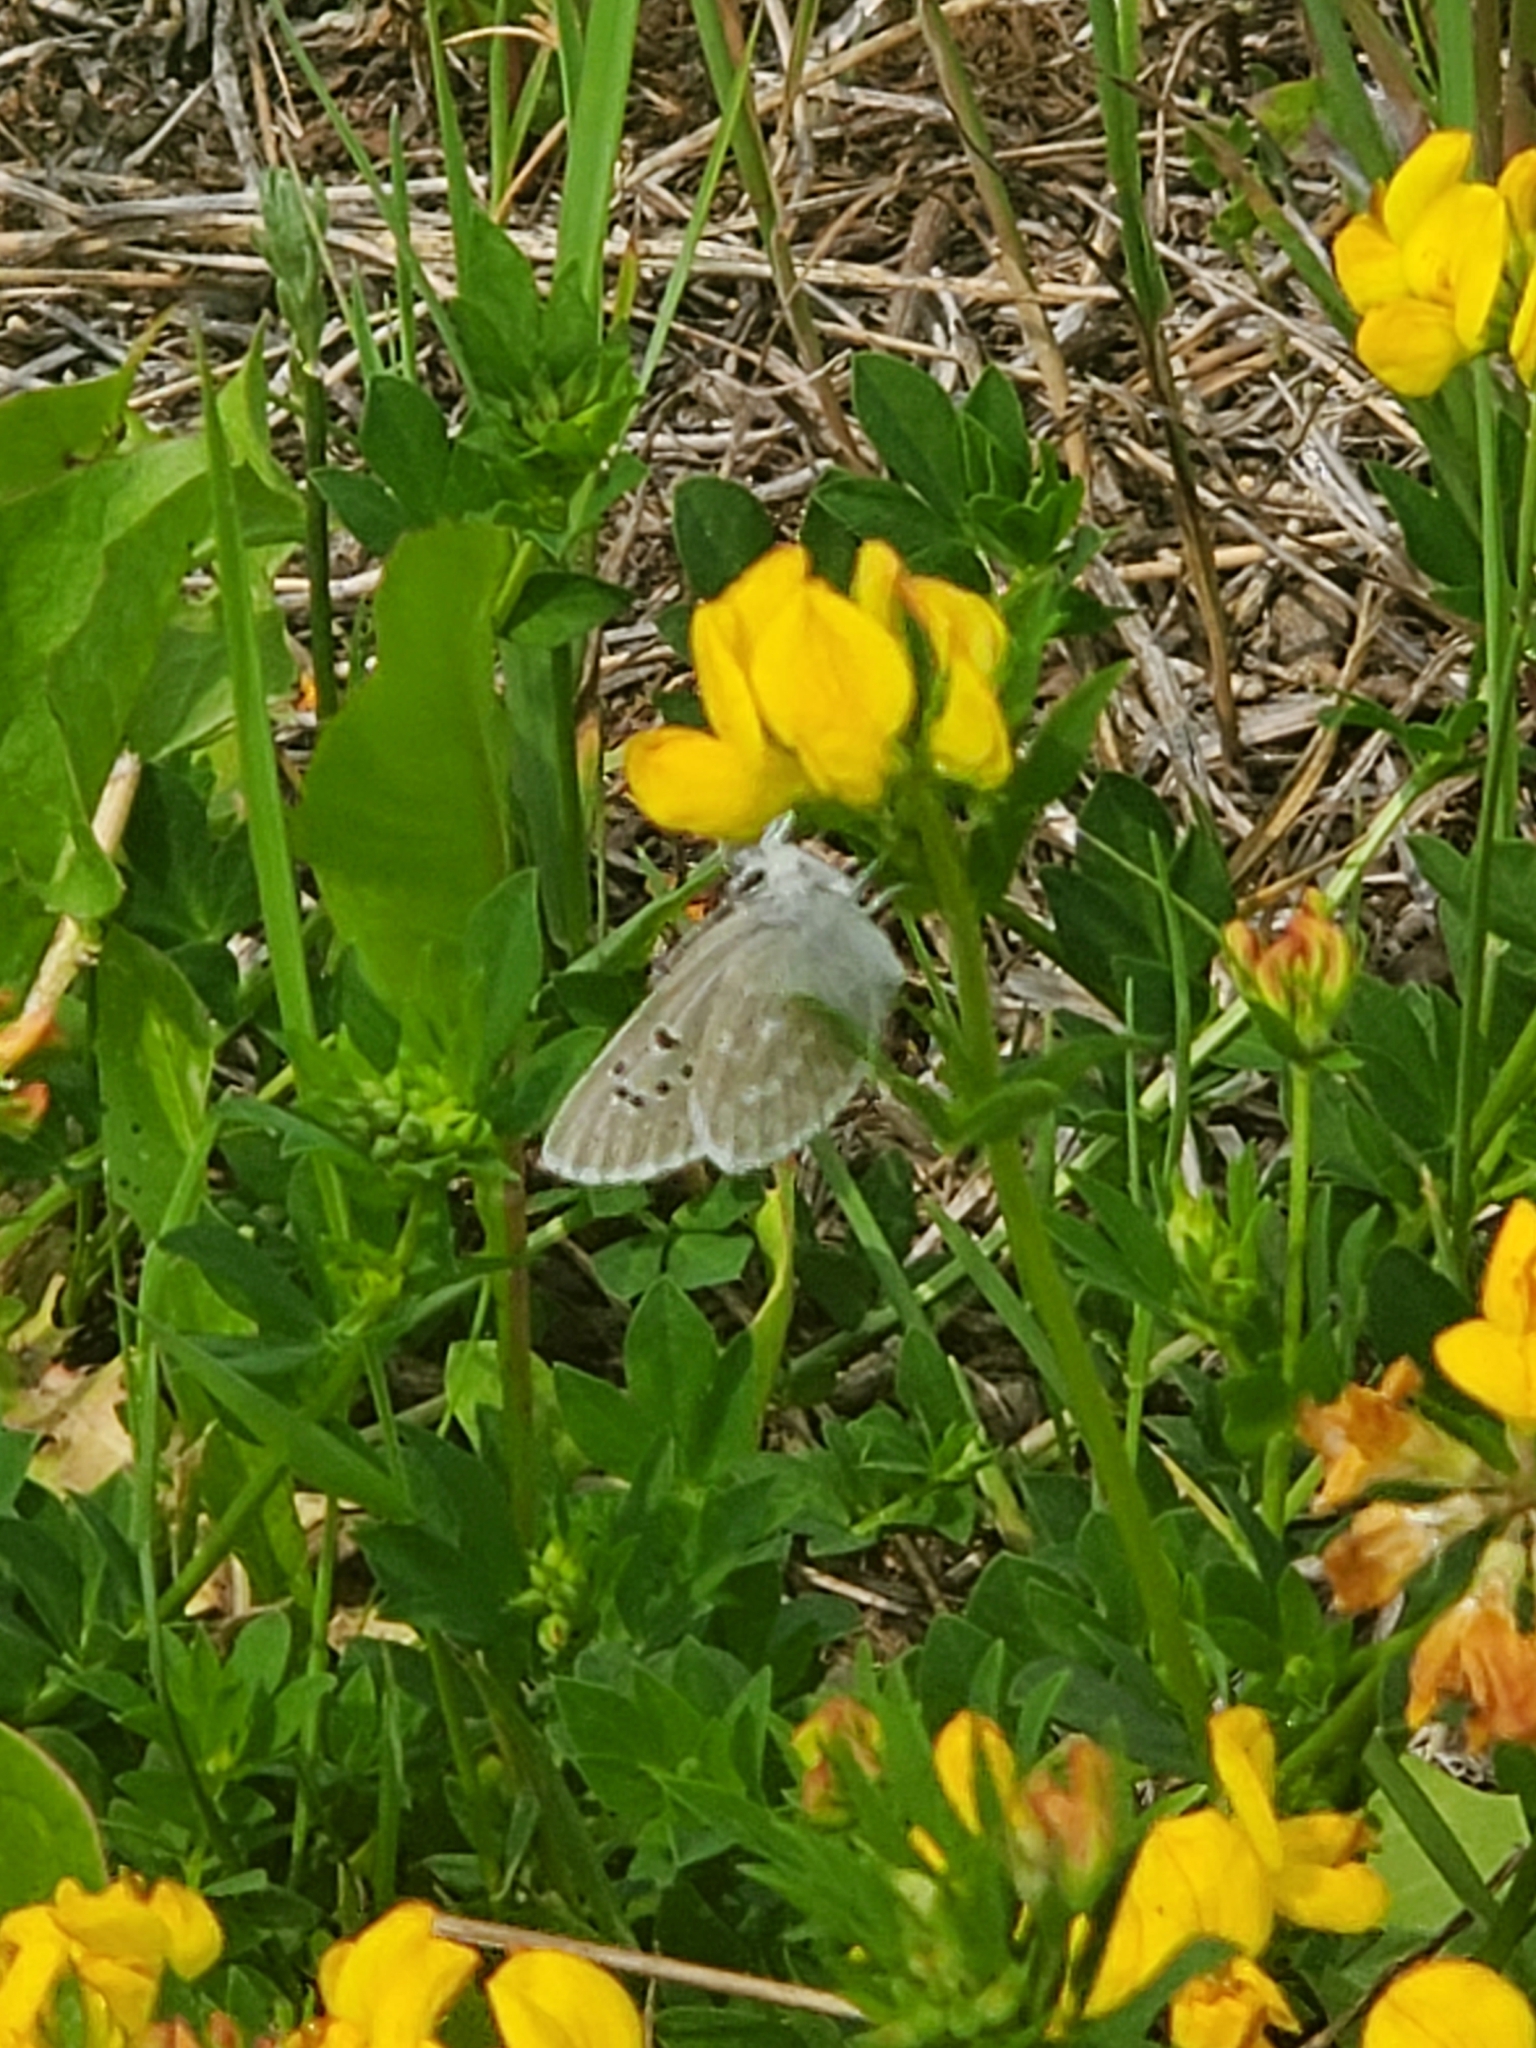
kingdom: Animalia
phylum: Arthropoda
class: Insecta
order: Lepidoptera
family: Lycaenidae
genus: Icaricia
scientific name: Icaricia icarioides
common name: Boisduval's blue
